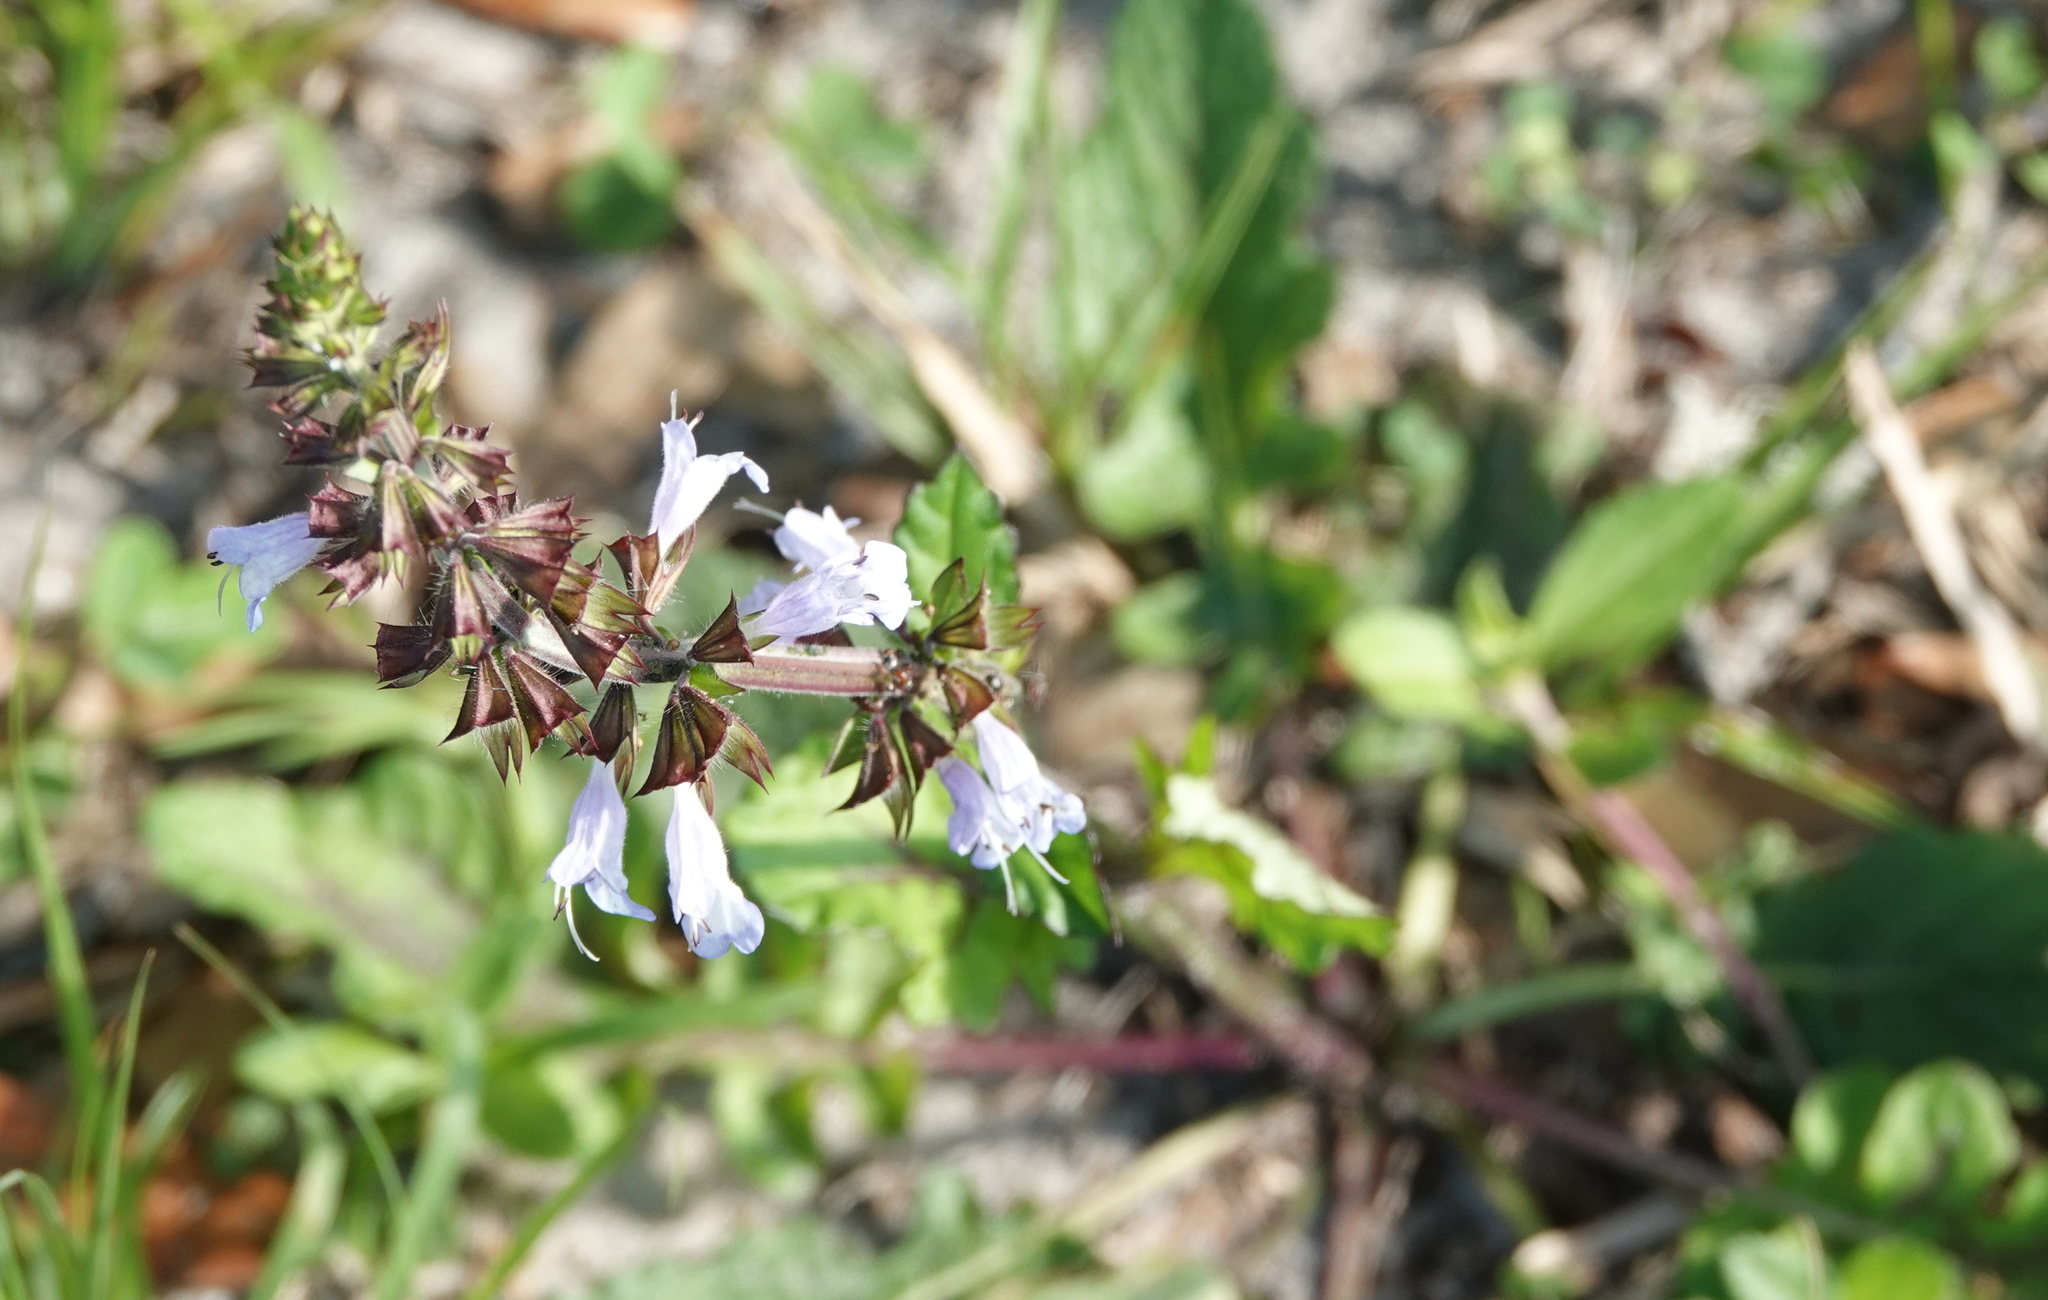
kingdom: Plantae
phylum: Tracheophyta
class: Magnoliopsida
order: Lamiales
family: Lamiaceae
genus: Salvia
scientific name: Salvia lyrata
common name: Cancerweed
